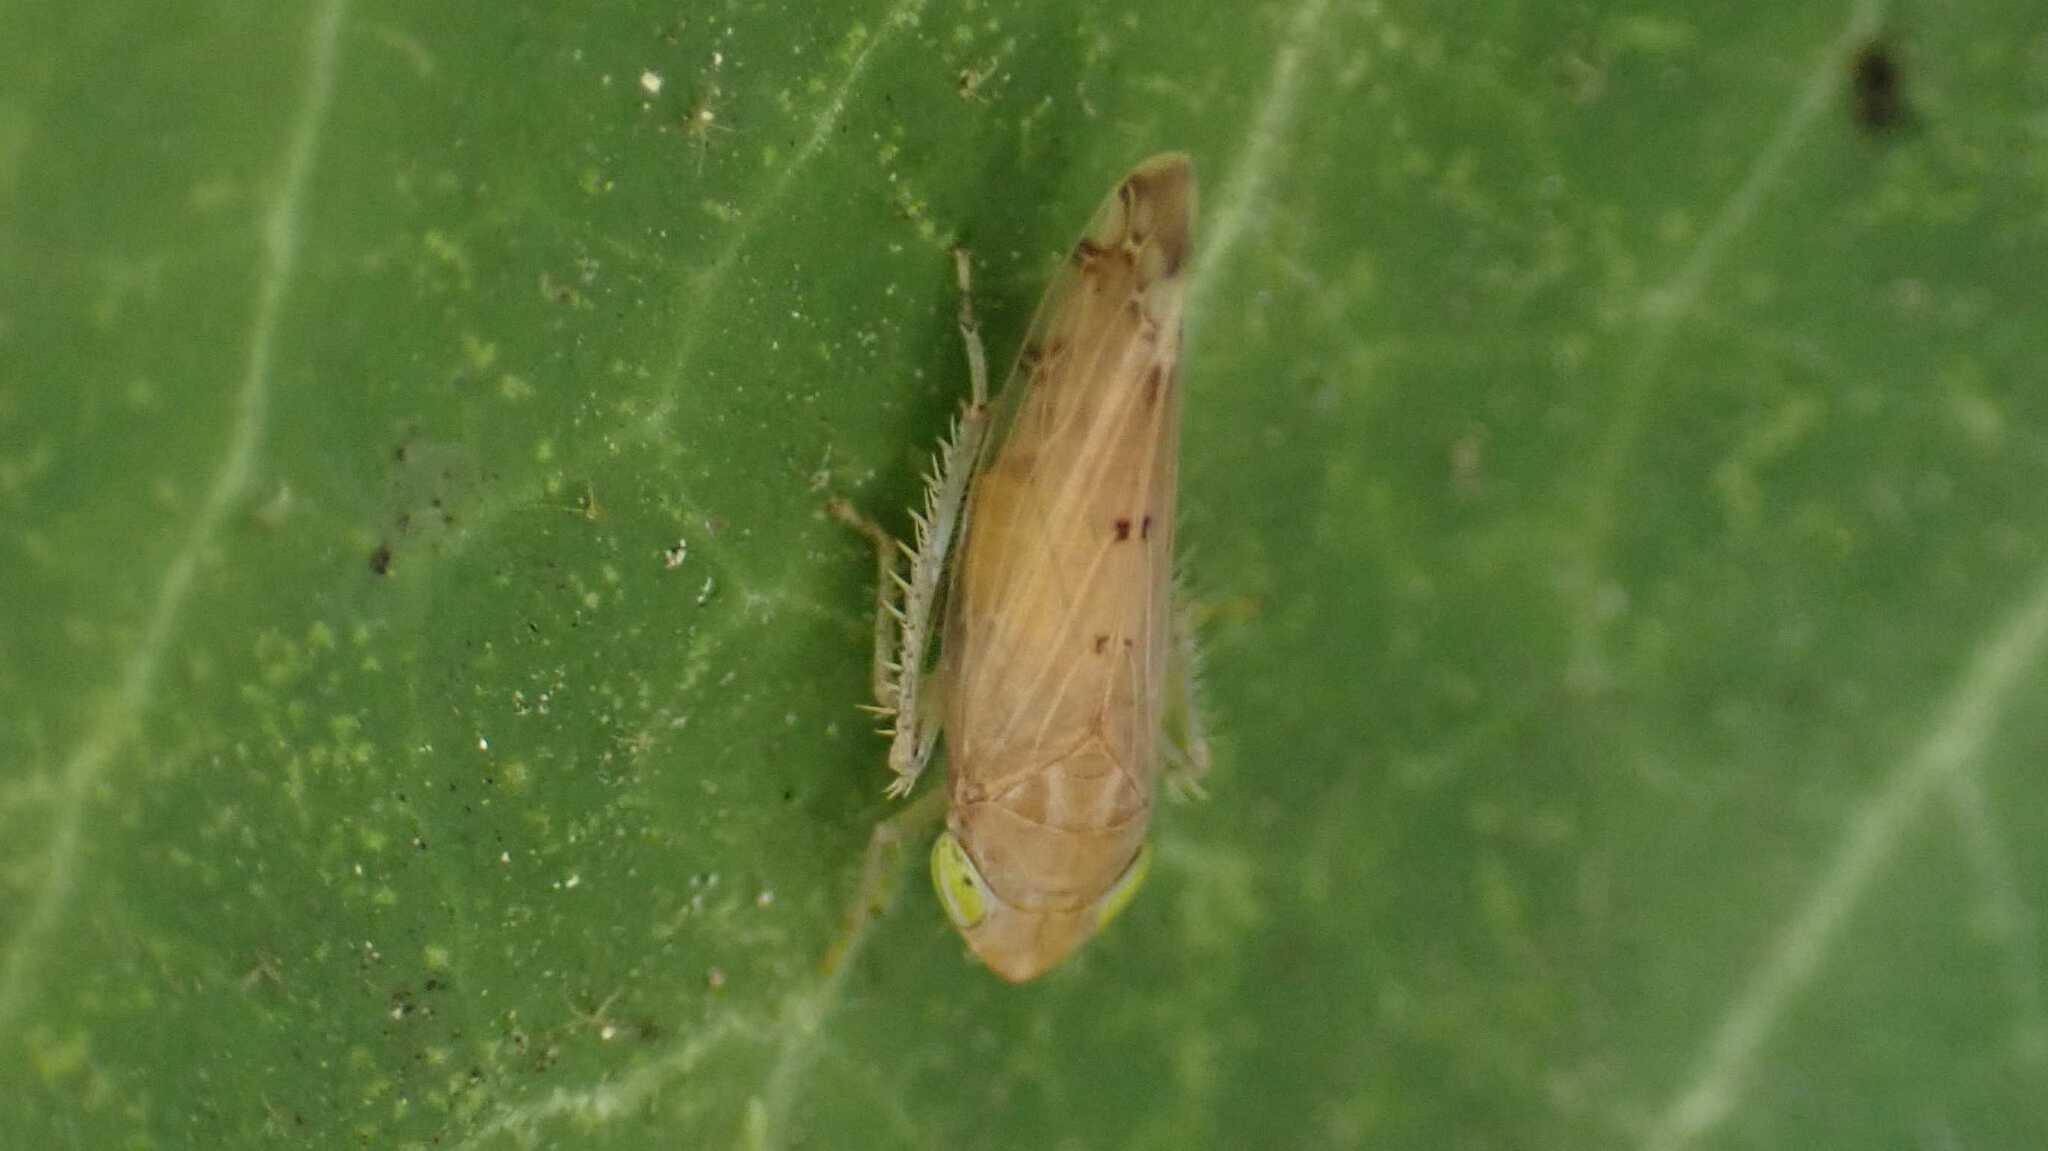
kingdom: Animalia
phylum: Arthropoda
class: Insecta
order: Hemiptera
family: Cicadellidae
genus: Synophropsis
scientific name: Synophropsis lauri
